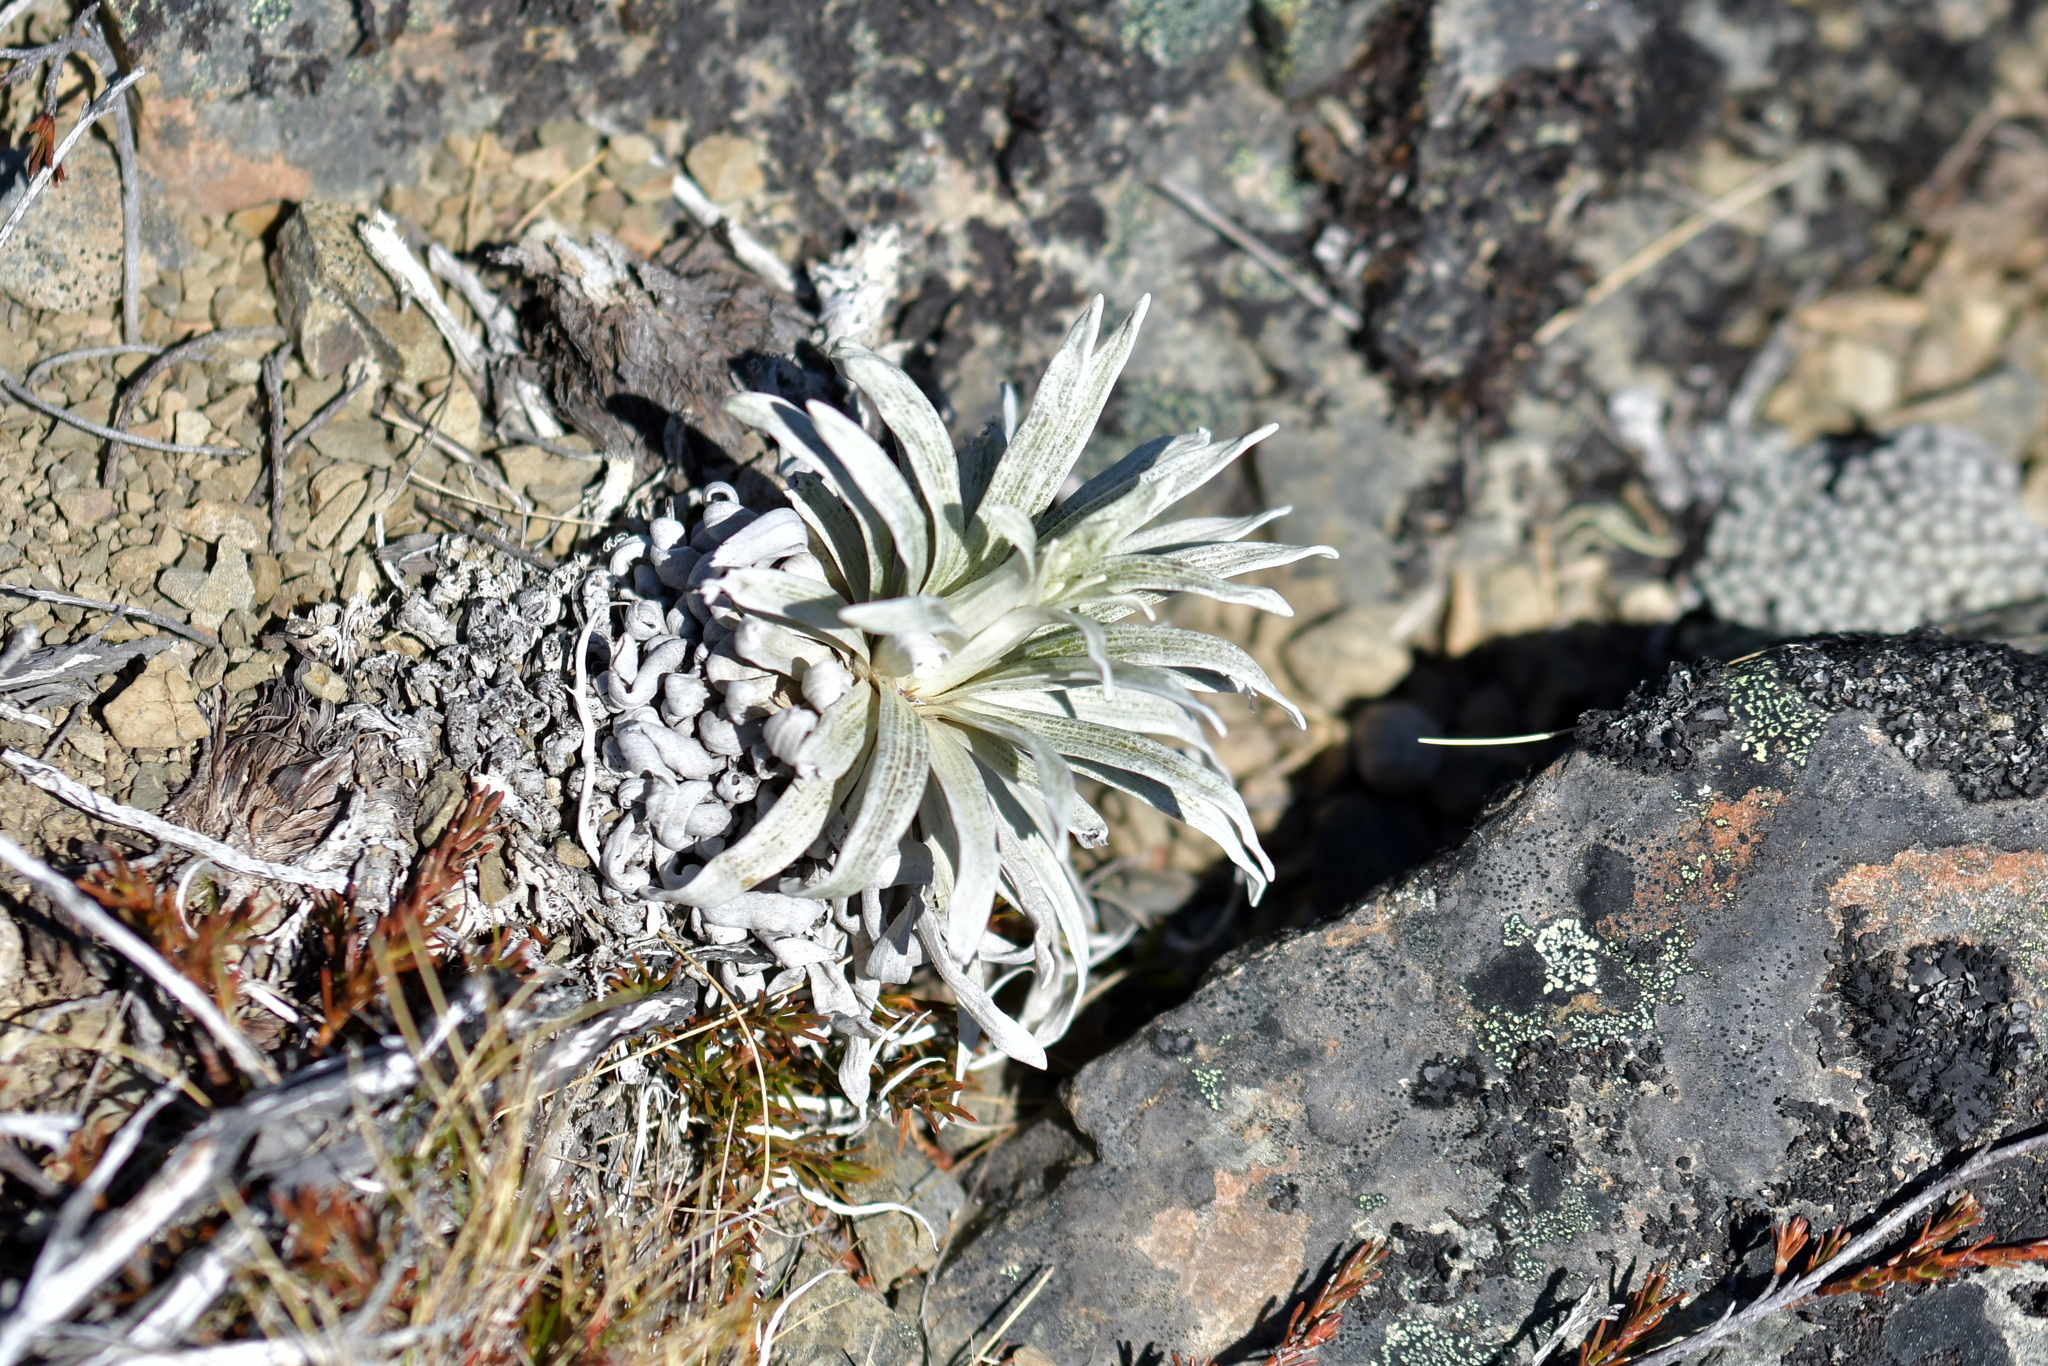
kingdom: Plantae
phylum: Tracheophyta
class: Magnoliopsida
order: Asterales
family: Asteraceae
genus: Celmisia
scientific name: Celmisia viscosa
